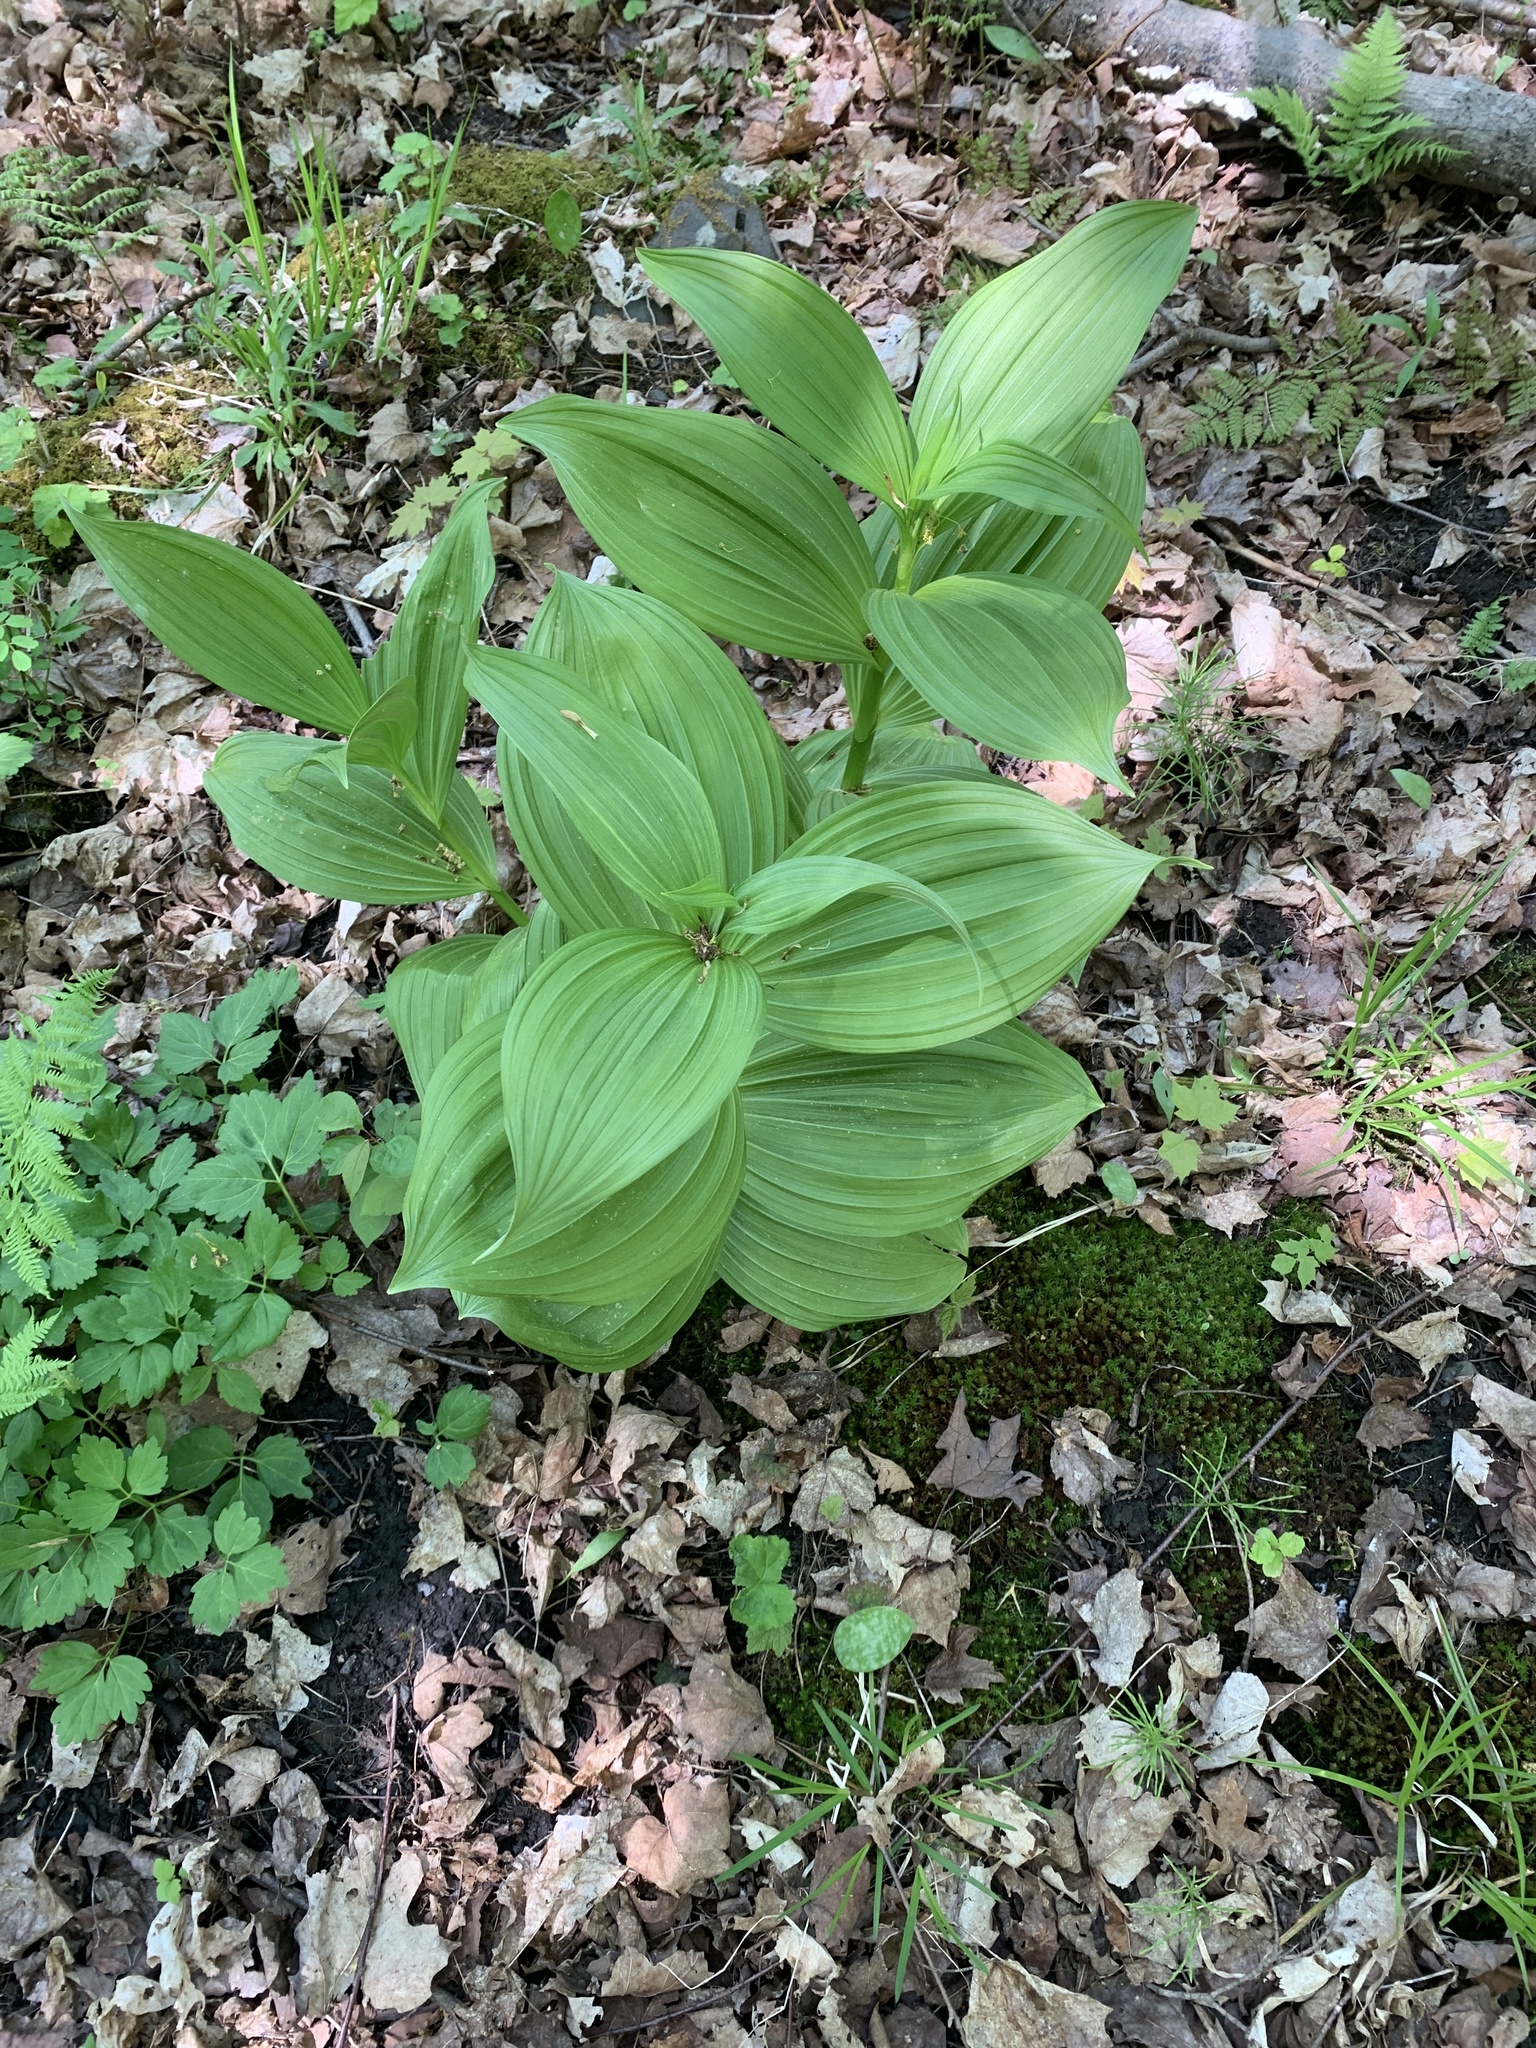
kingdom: Plantae
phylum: Tracheophyta
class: Liliopsida
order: Liliales
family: Melanthiaceae
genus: Veratrum
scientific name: Veratrum viride
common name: American false hellebore
